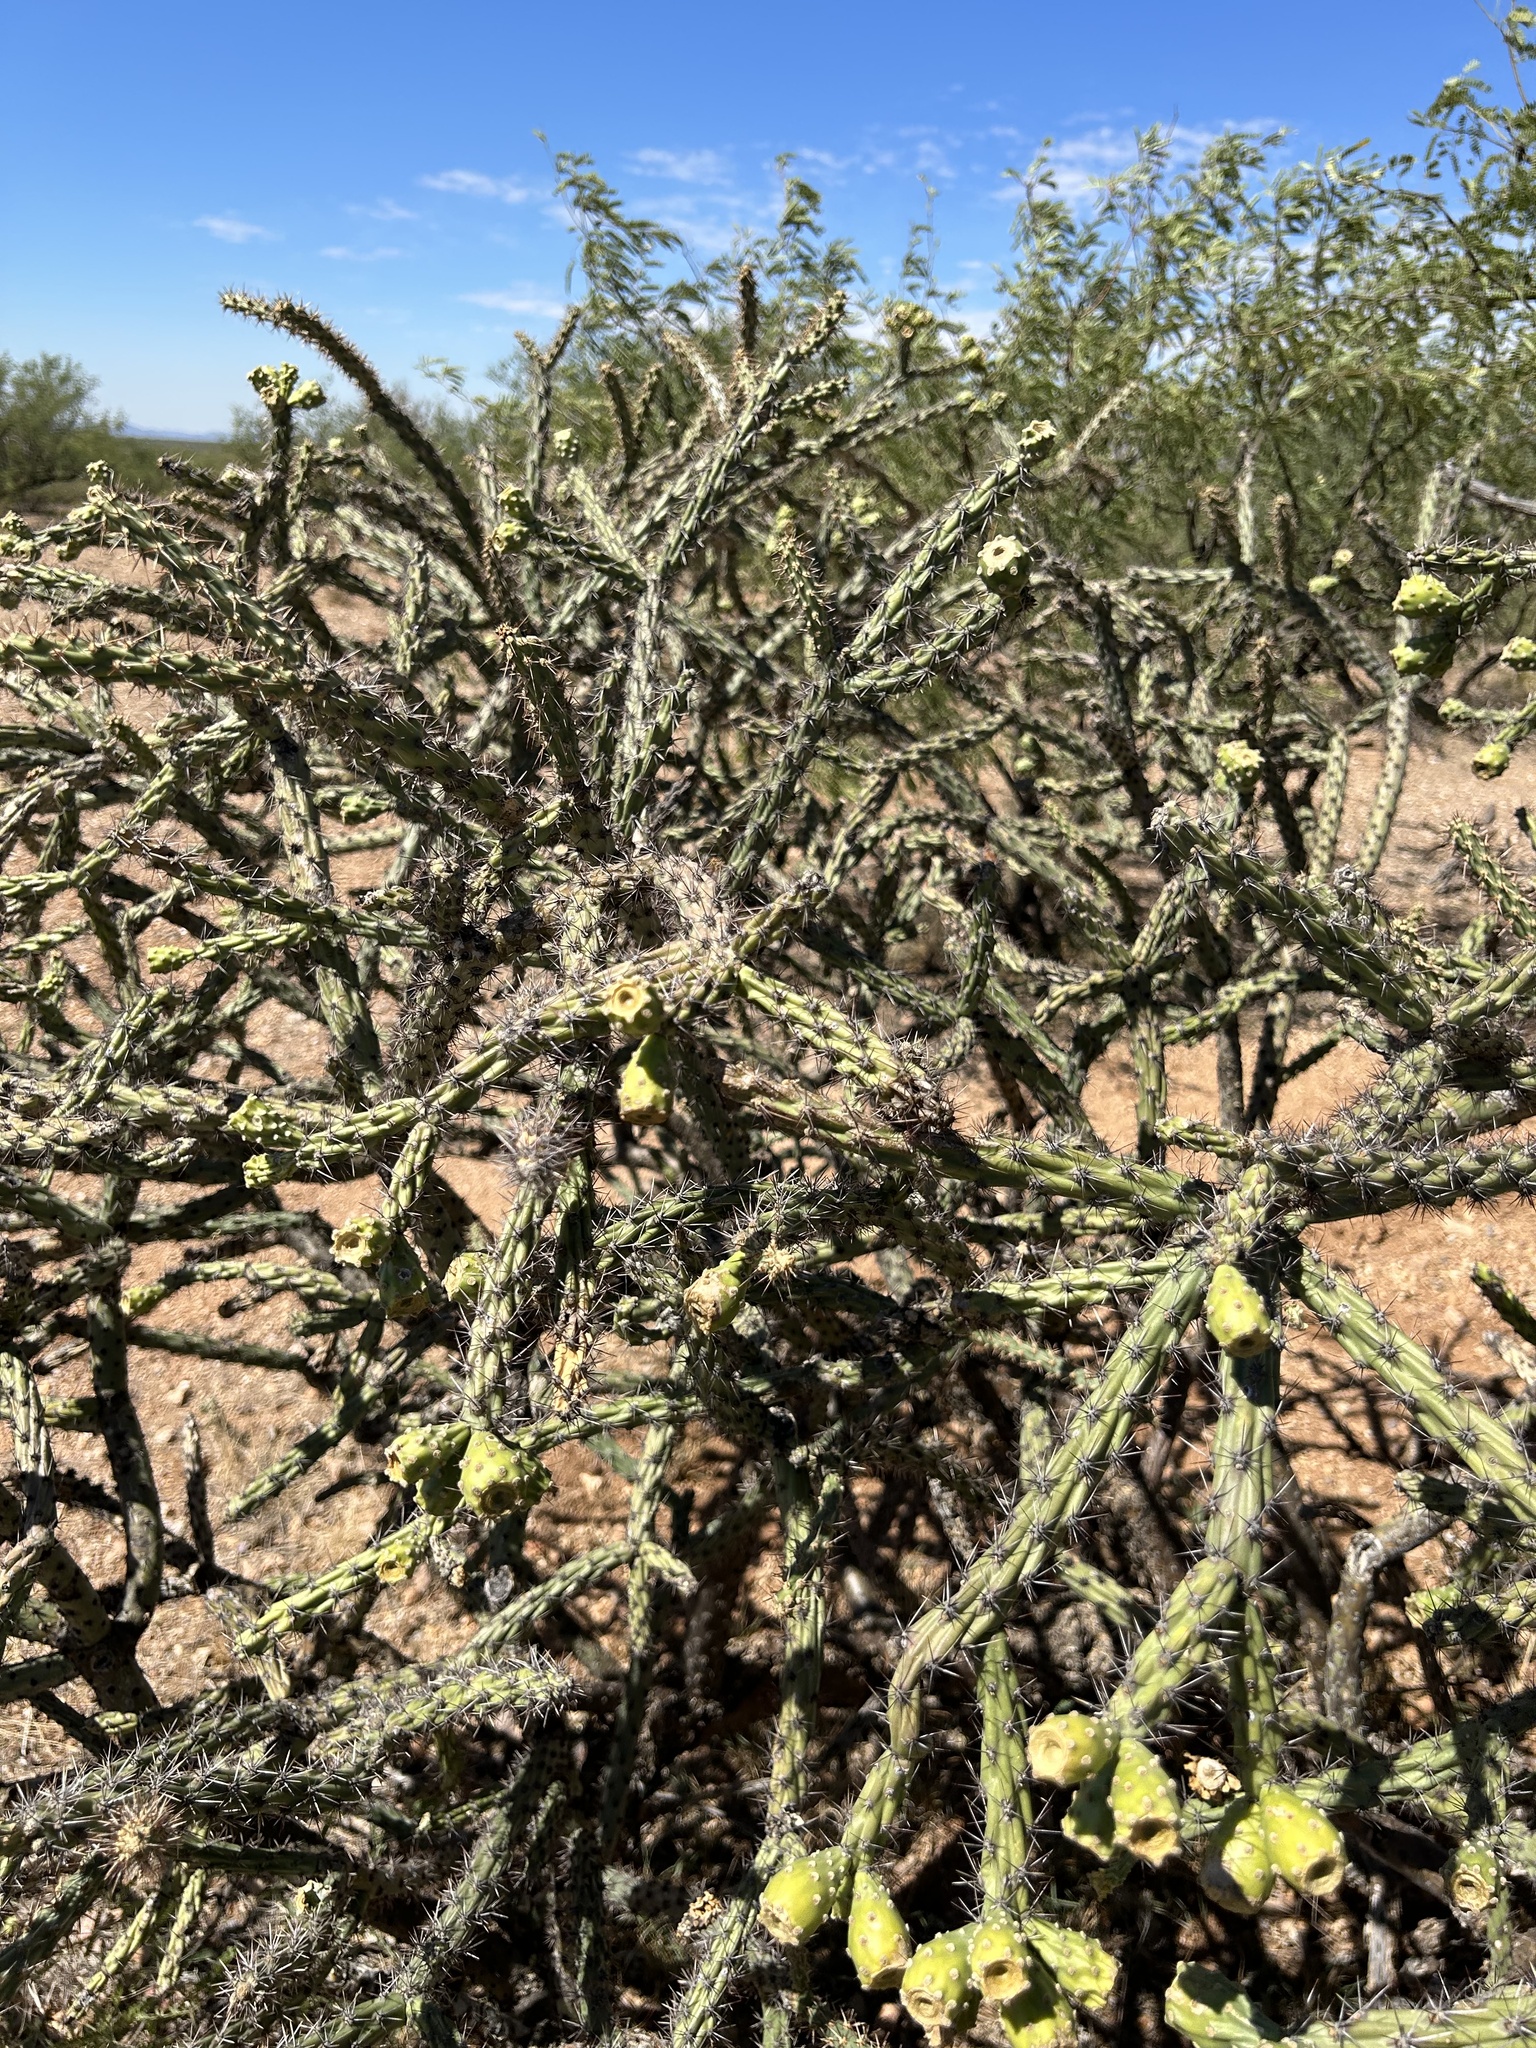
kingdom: Plantae
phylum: Tracheophyta
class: Magnoliopsida
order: Caryophyllales
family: Cactaceae
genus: Cylindropuntia
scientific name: Cylindropuntia thurberi
